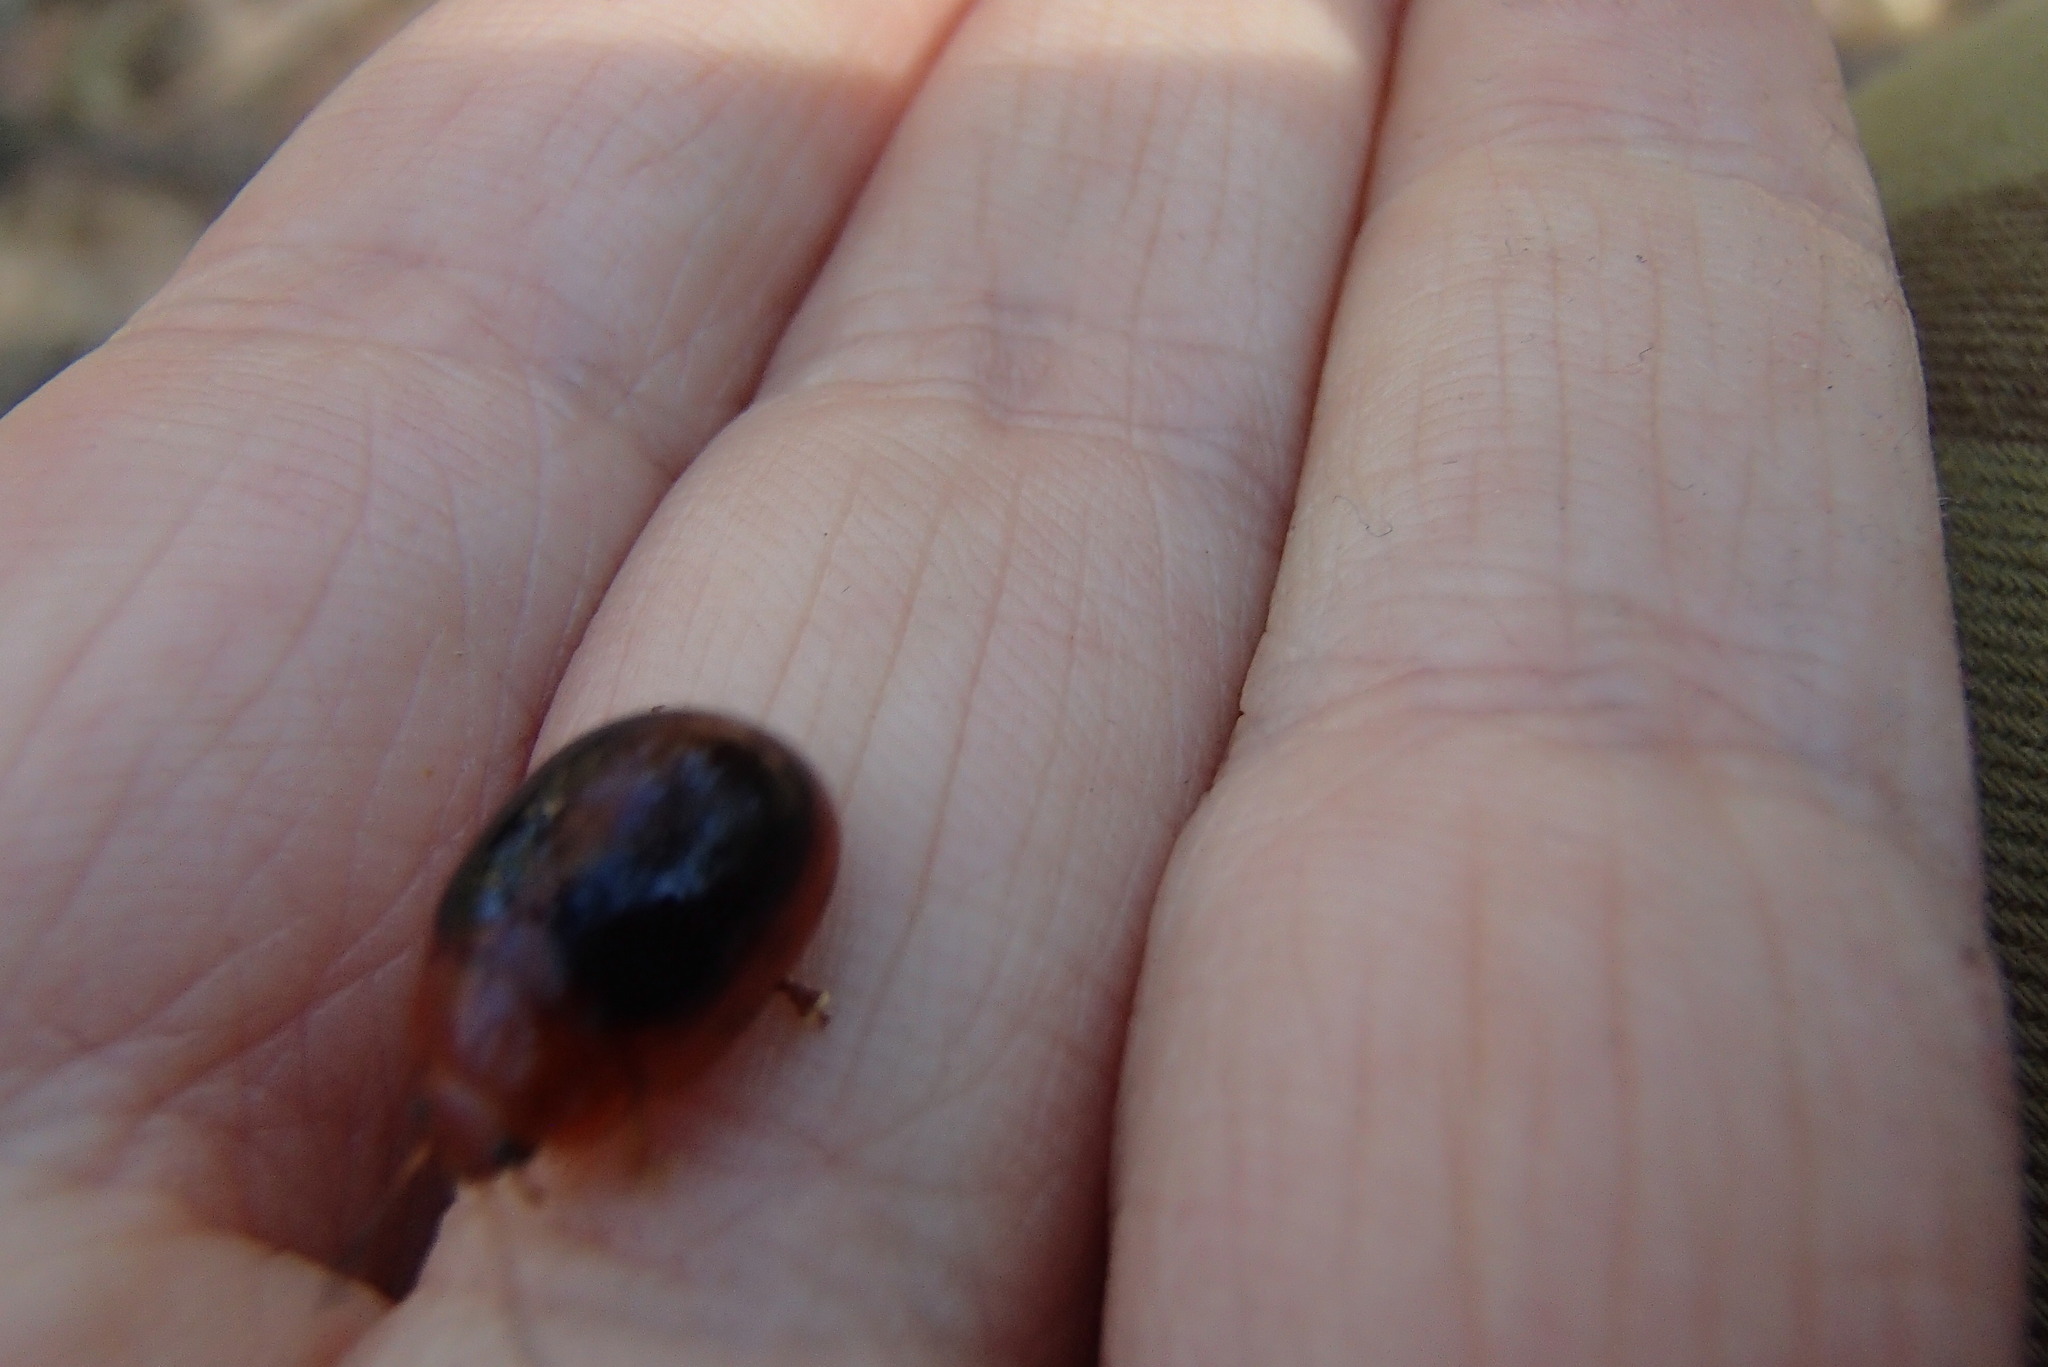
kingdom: Animalia
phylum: Arthropoda
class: Insecta
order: Coleoptera
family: Chrysomelidae
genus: Paropsisterna
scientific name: Paropsisterna
